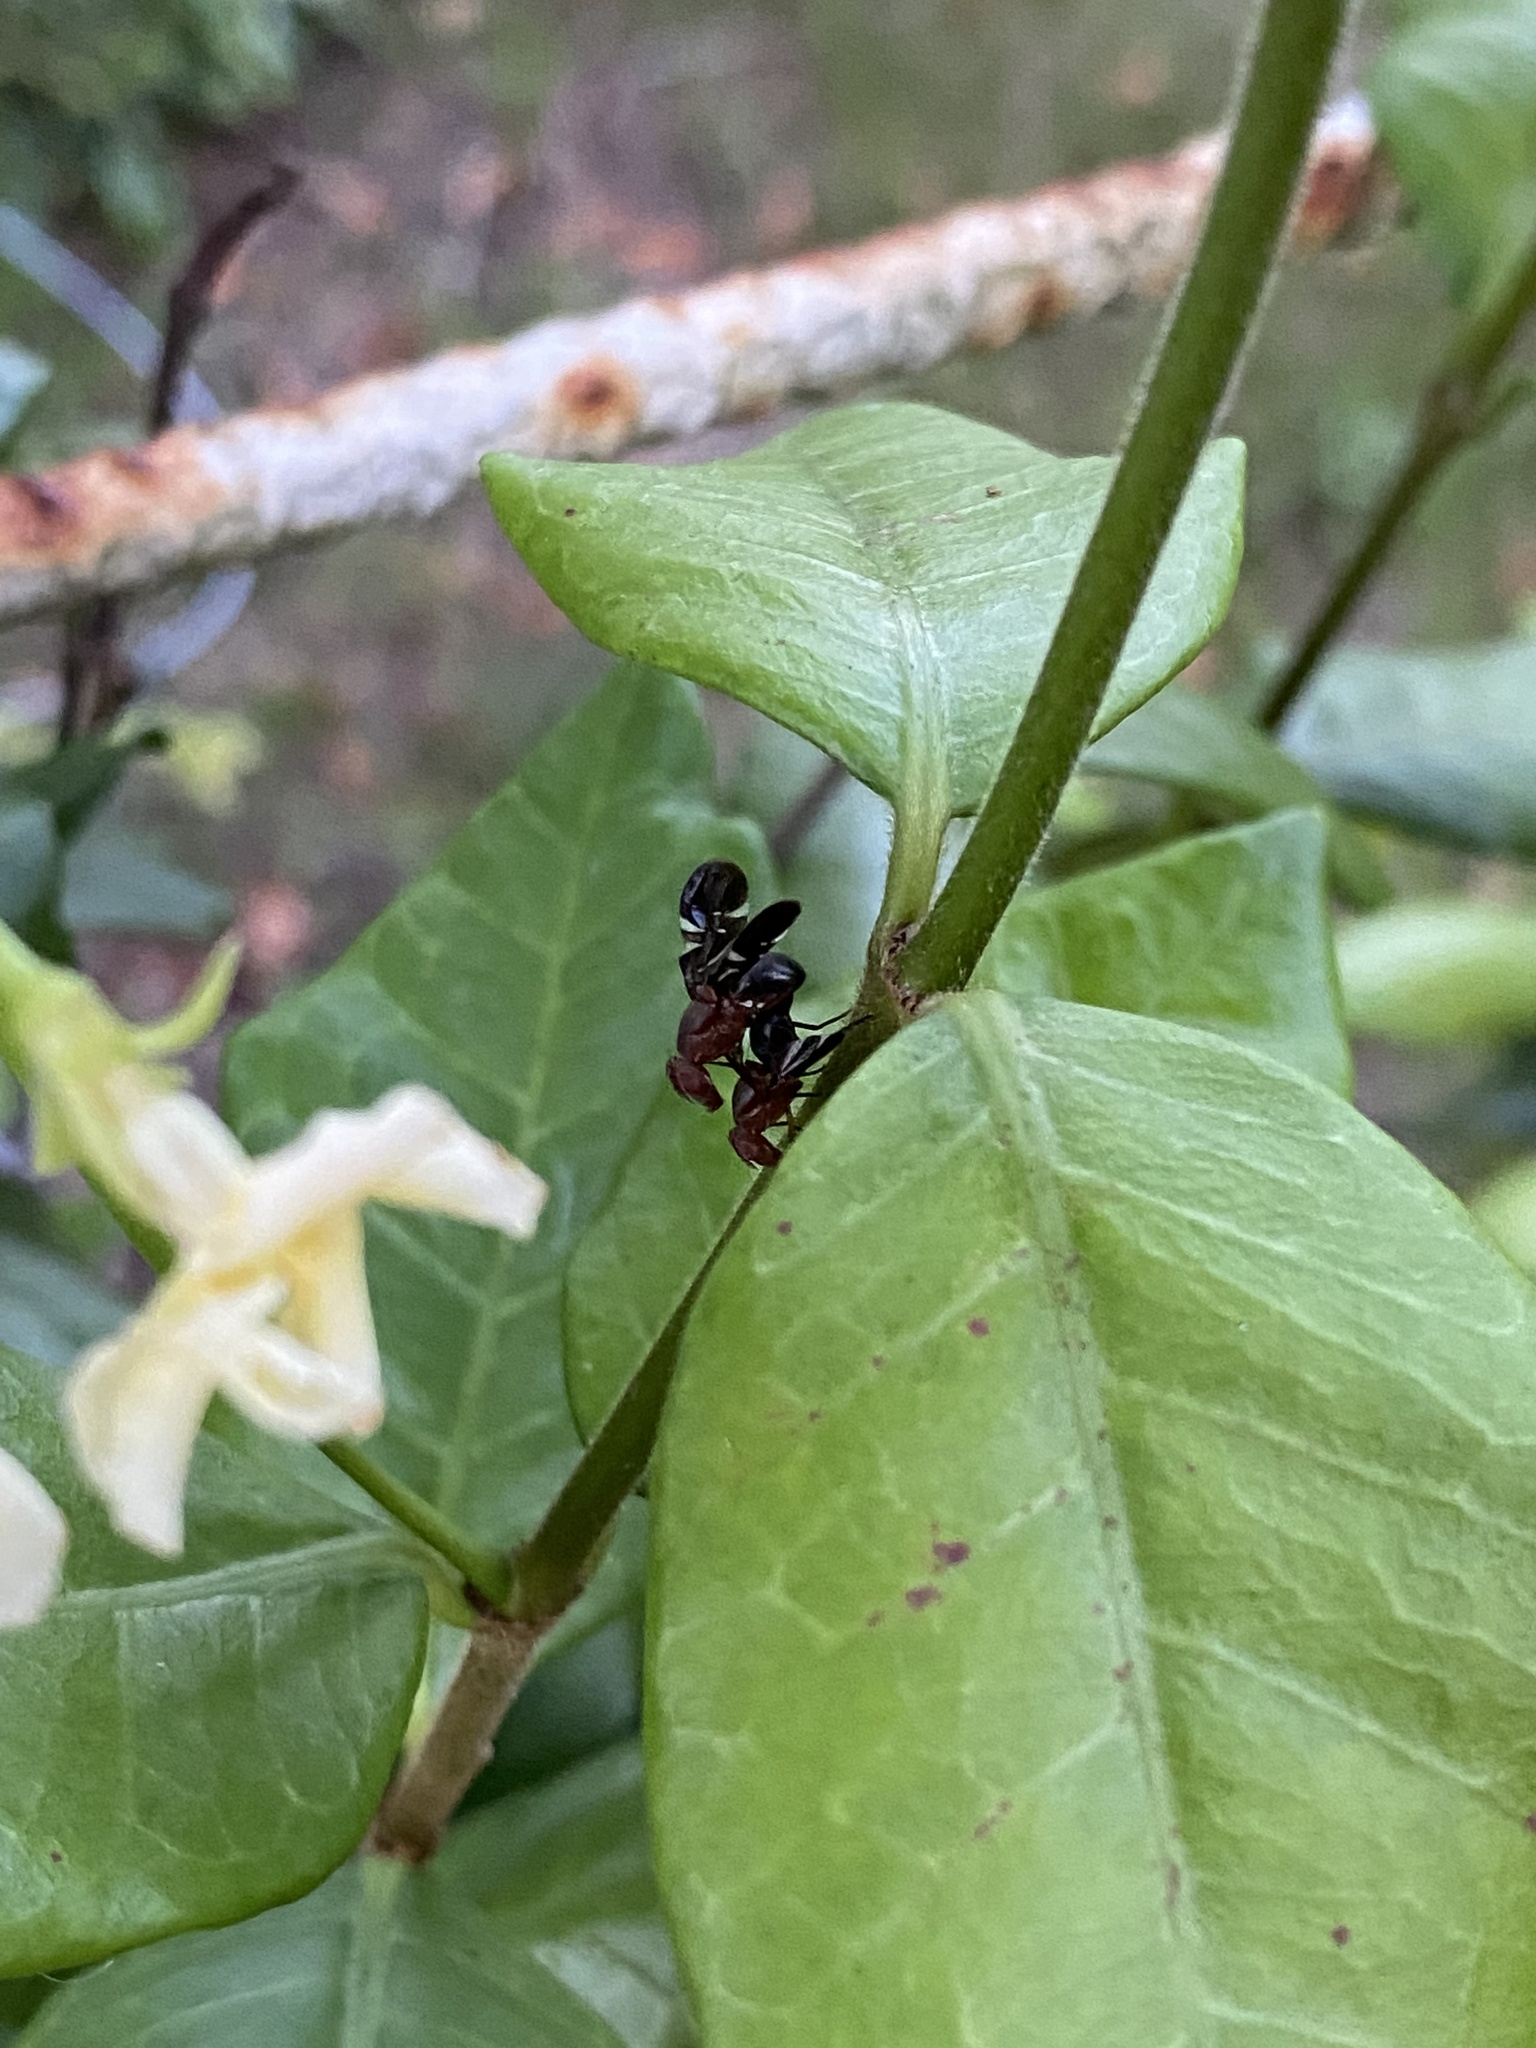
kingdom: Animalia
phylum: Arthropoda
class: Insecta
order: Diptera
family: Ulidiidae
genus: Delphinia
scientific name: Delphinia picta
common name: Common picture-winged fly
